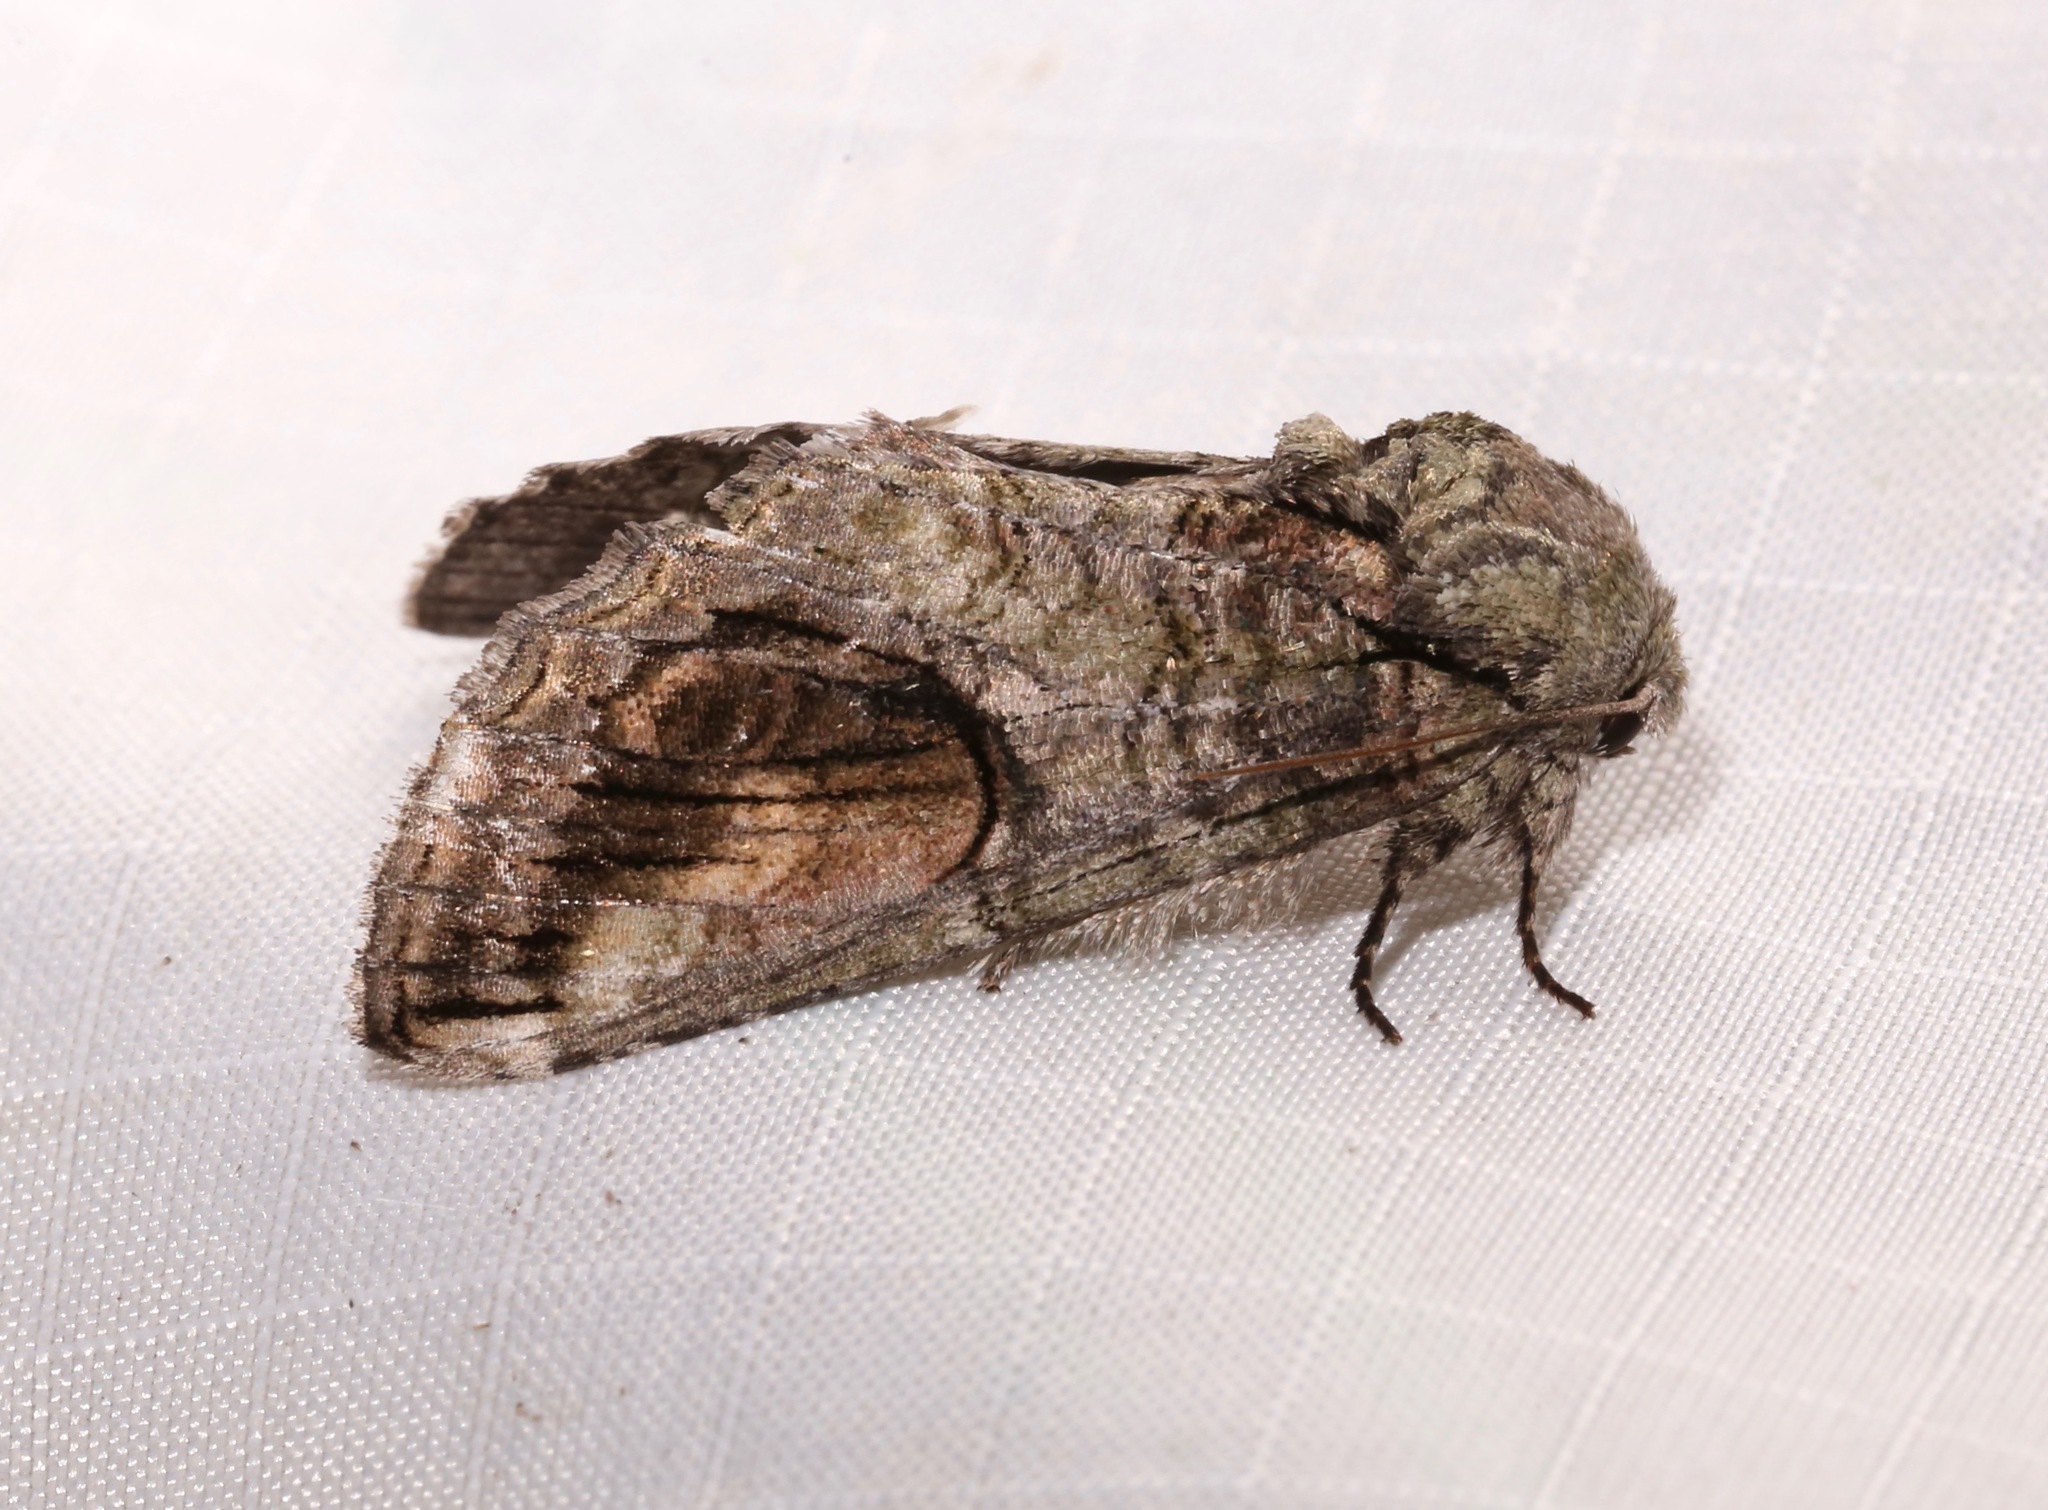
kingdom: Animalia
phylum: Arthropoda
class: Insecta
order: Lepidoptera
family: Notodontidae
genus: Heterocampa
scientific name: Heterocampa obliqua
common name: Oblique heterocampa
